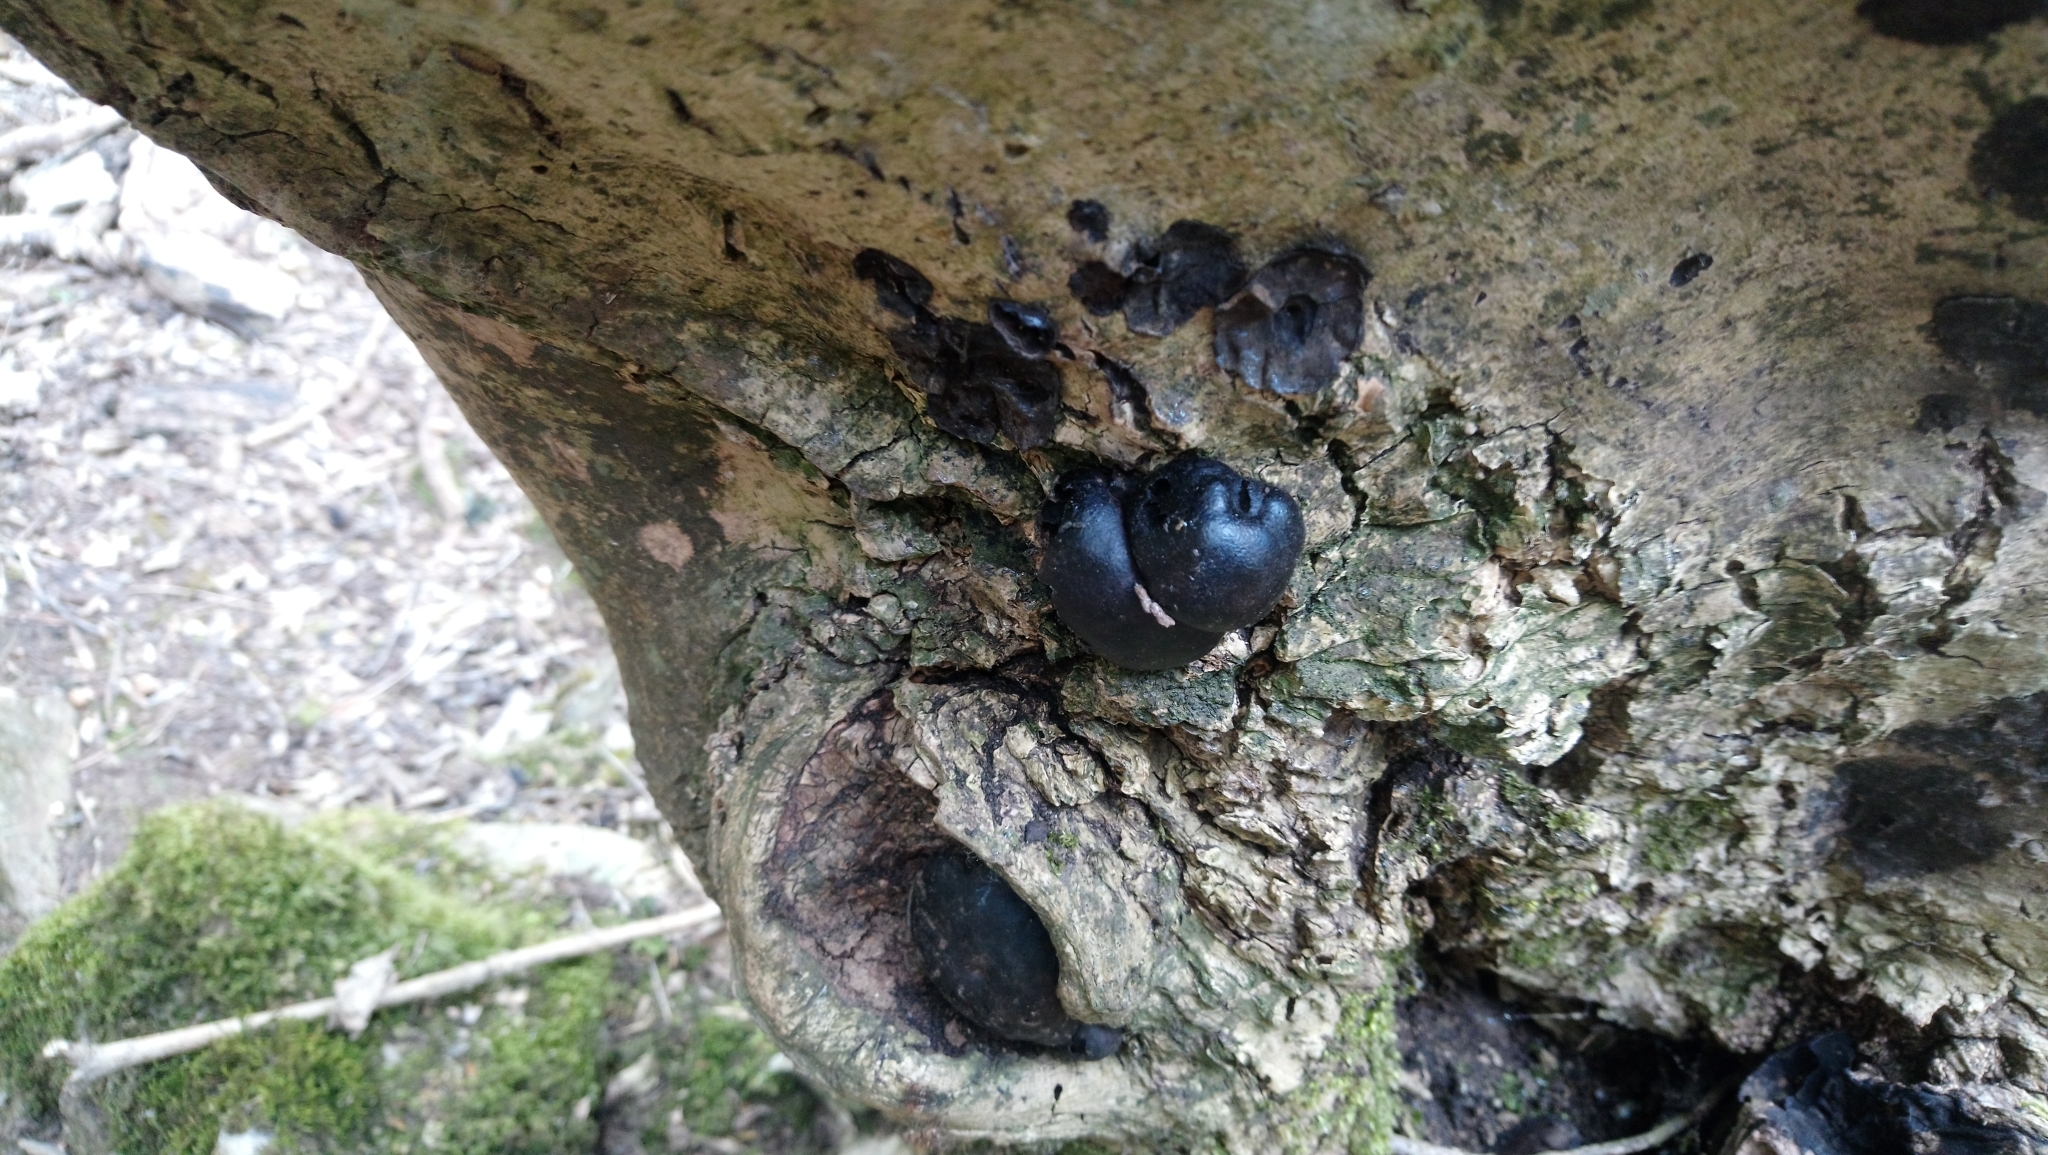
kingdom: Fungi
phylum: Ascomycota
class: Sordariomycetes
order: Xylariales
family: Hypoxylaceae
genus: Daldinia
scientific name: Daldinia concentrica
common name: Cramp balls
